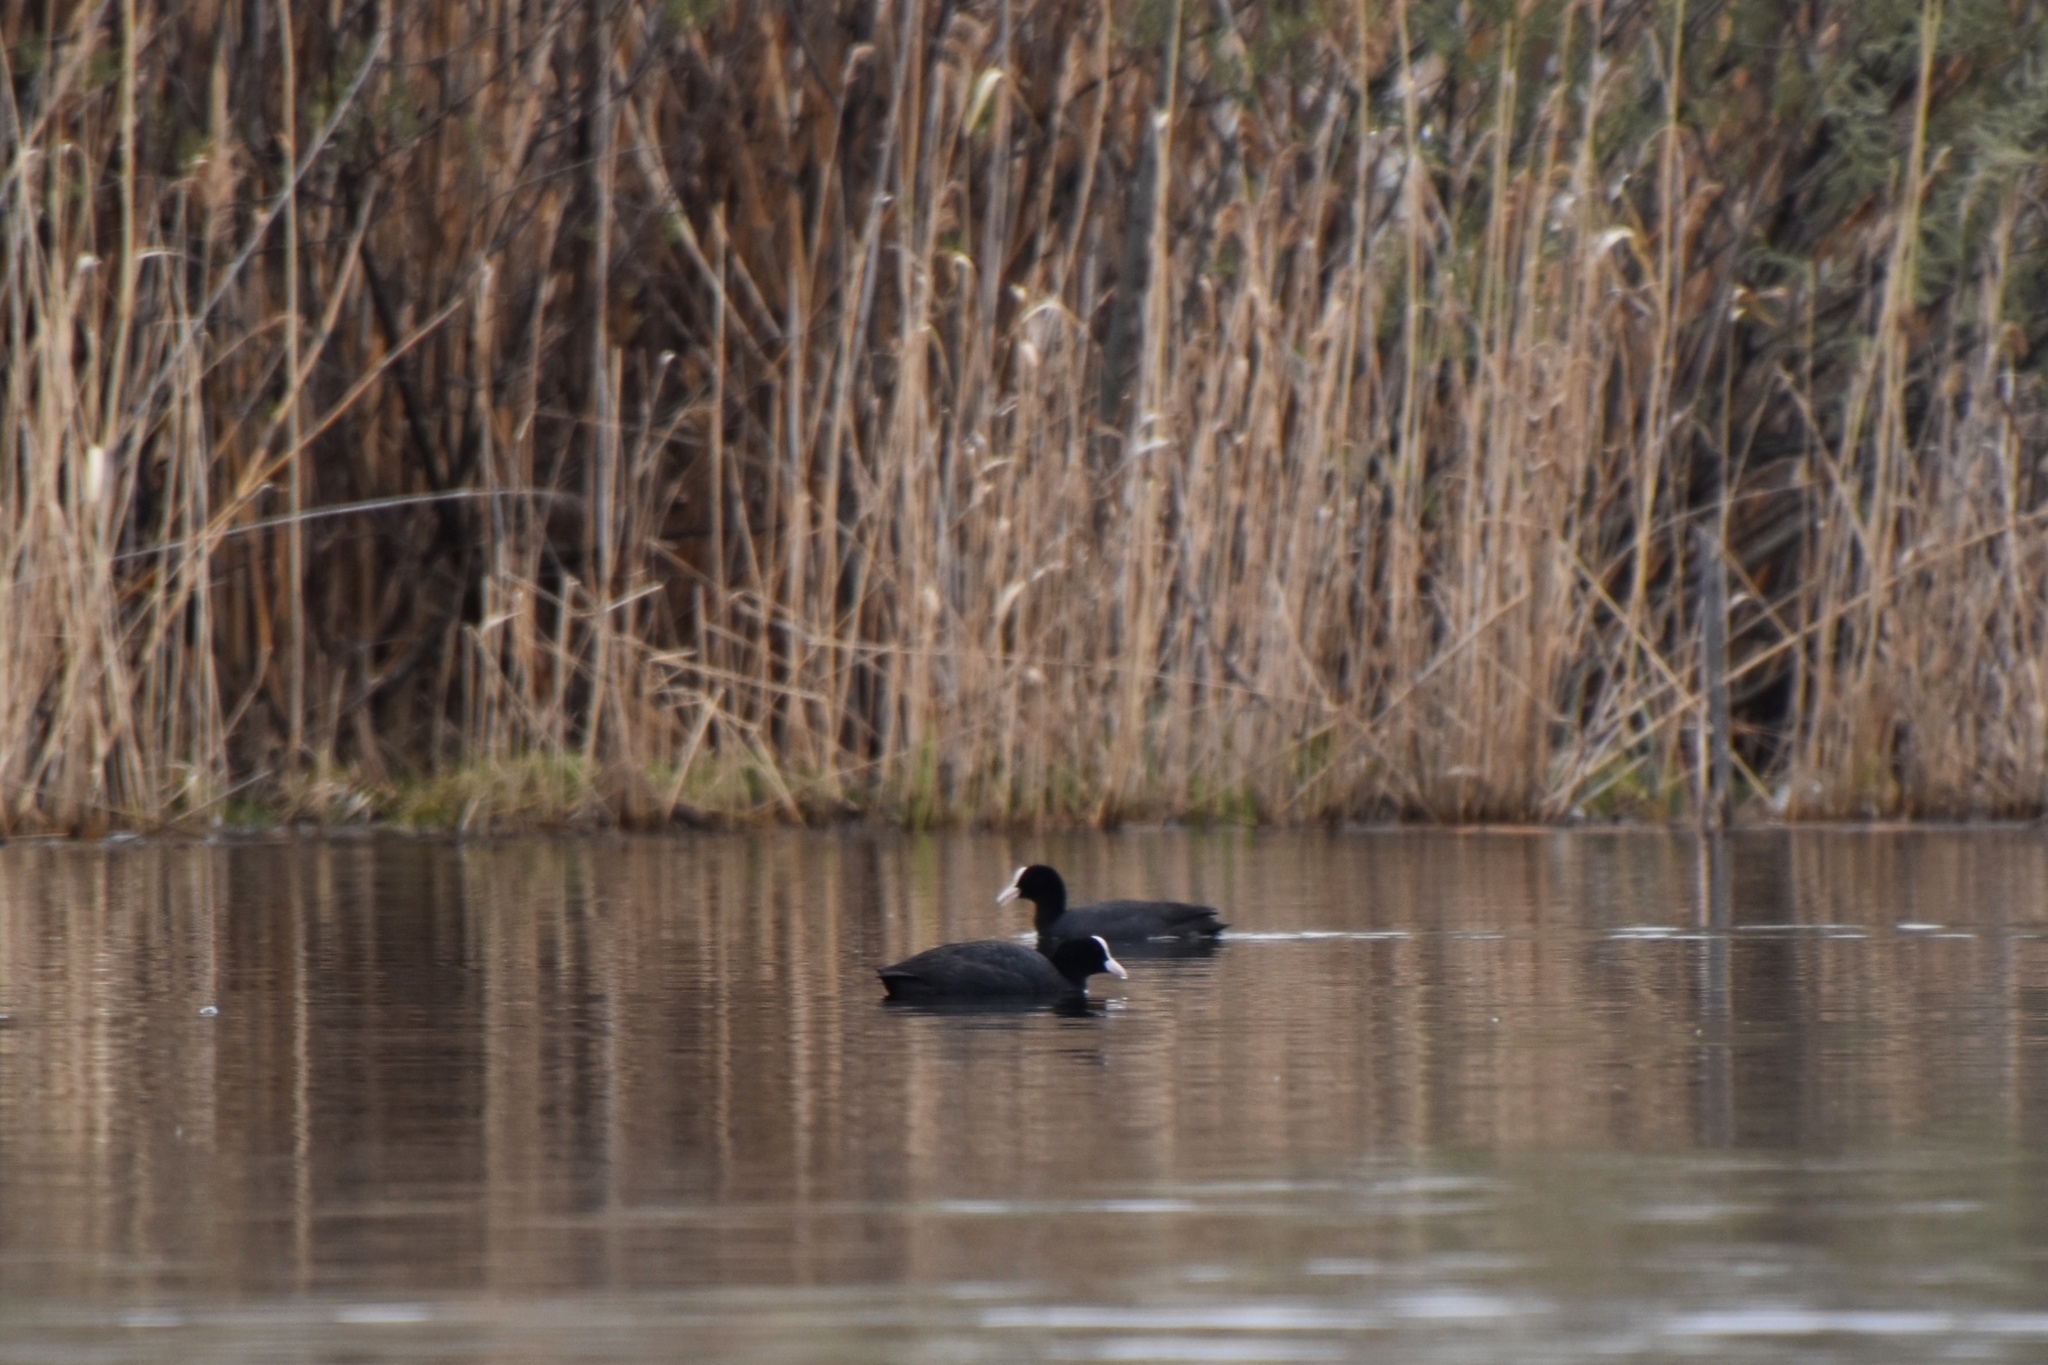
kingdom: Animalia
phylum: Chordata
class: Aves
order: Gruiformes
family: Rallidae
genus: Fulica
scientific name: Fulica atra
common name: Eurasian coot
